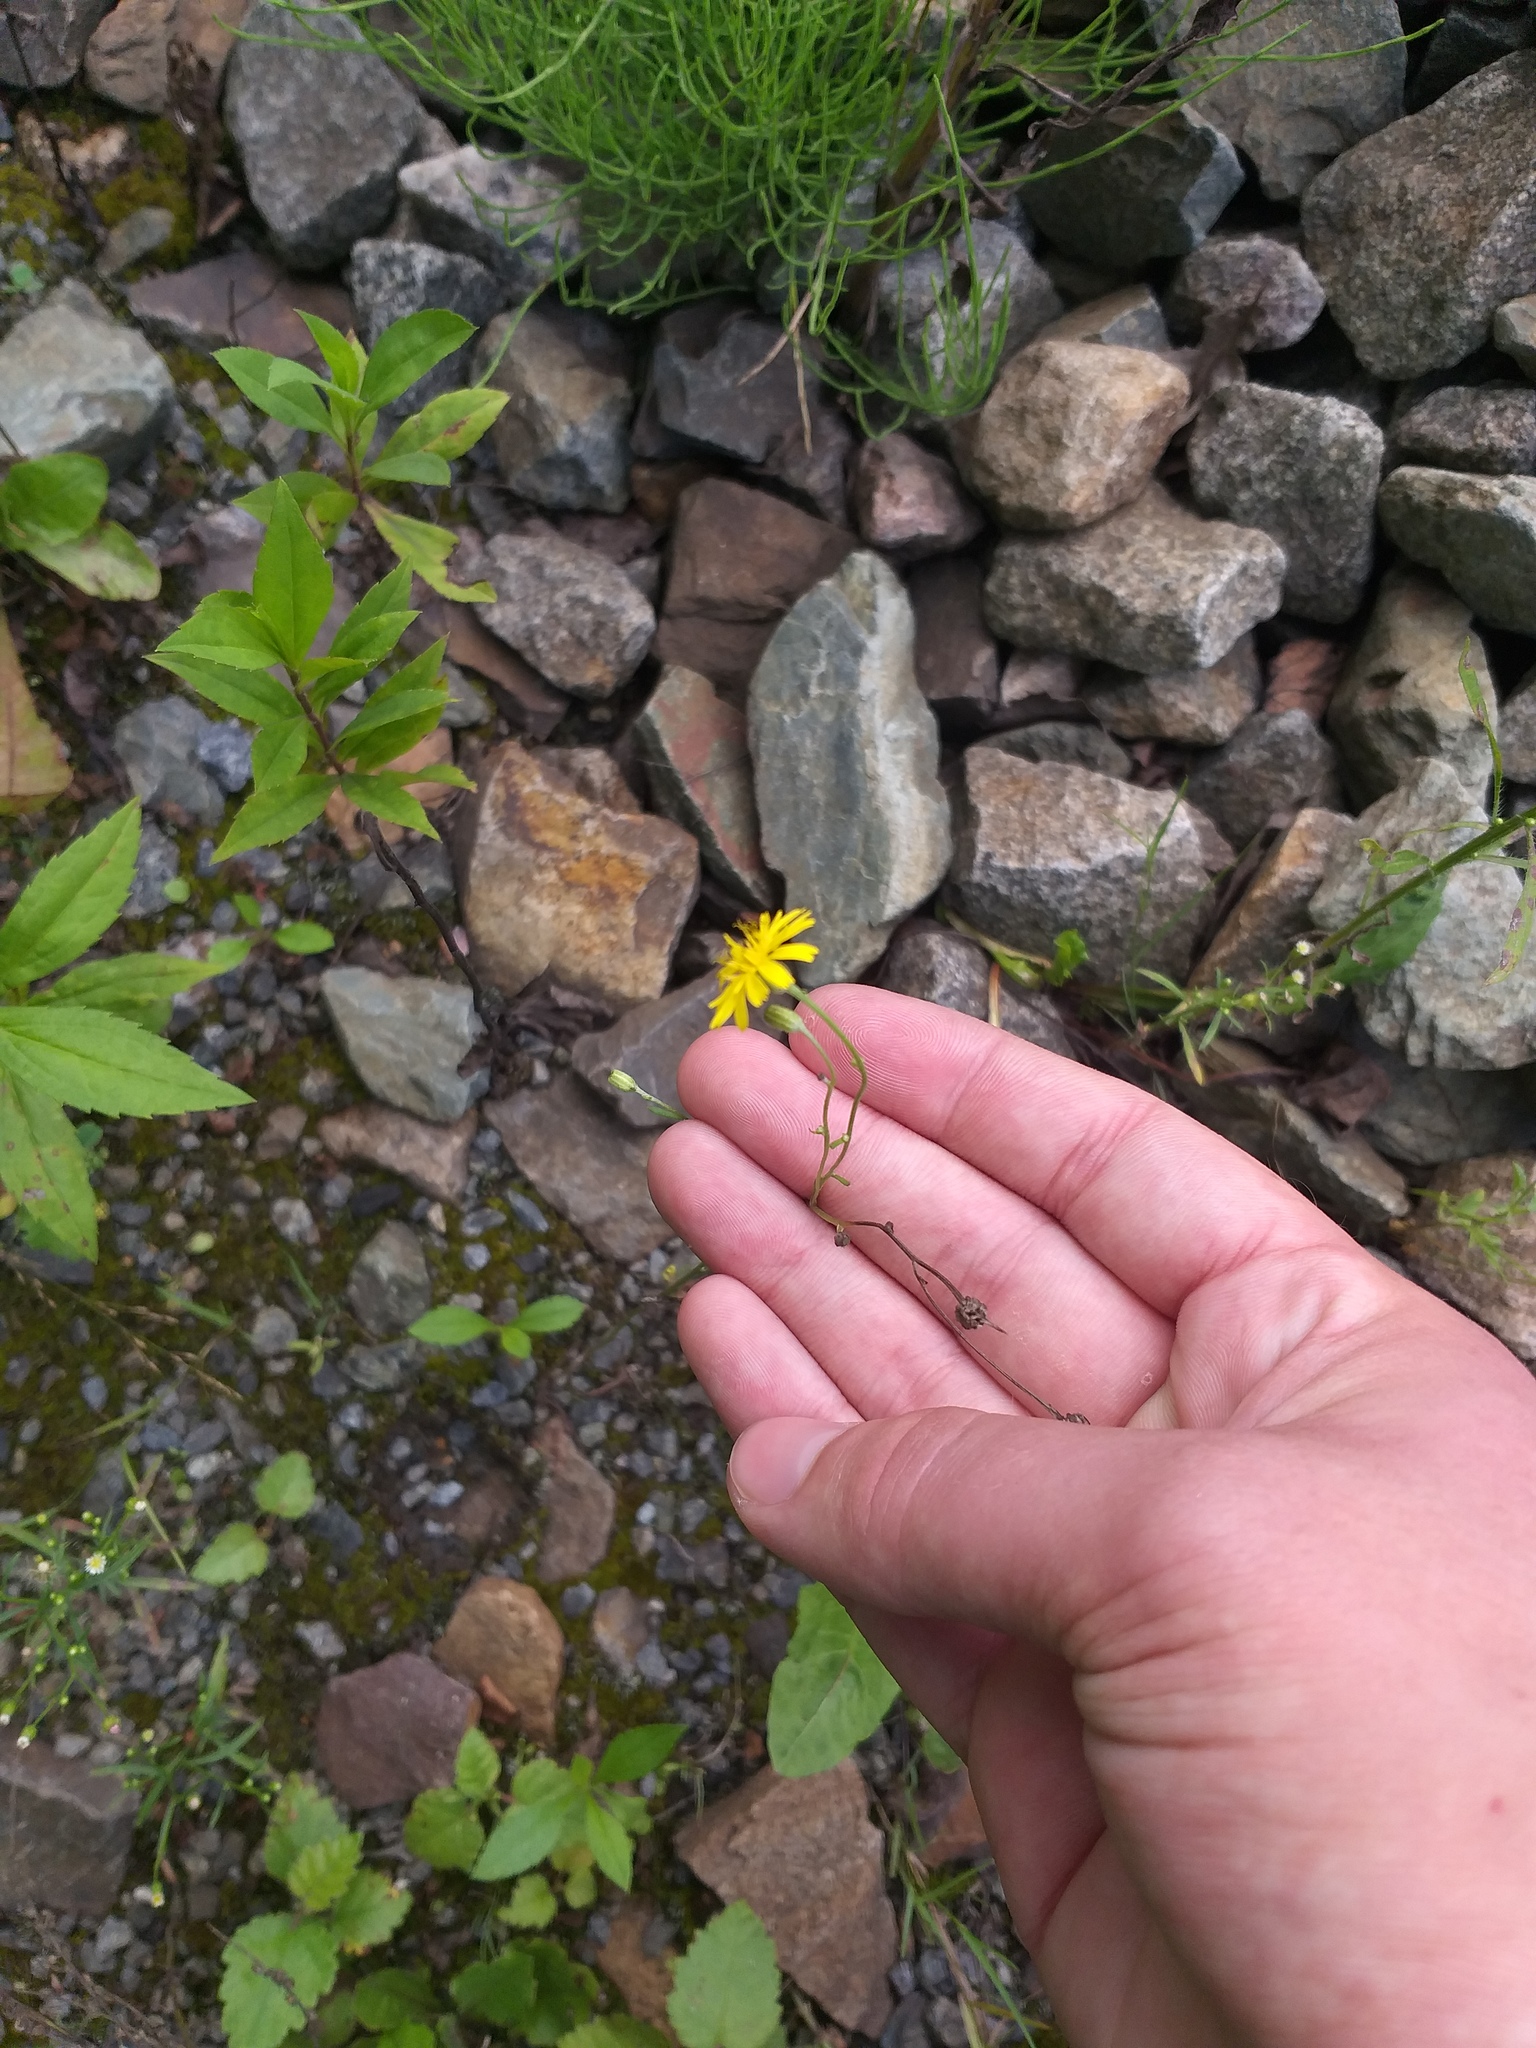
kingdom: Plantae
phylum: Tracheophyta
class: Magnoliopsida
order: Asterales
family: Asteraceae
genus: Crepis
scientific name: Crepis tectorum
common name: Narrow-leaved hawk's-beard
